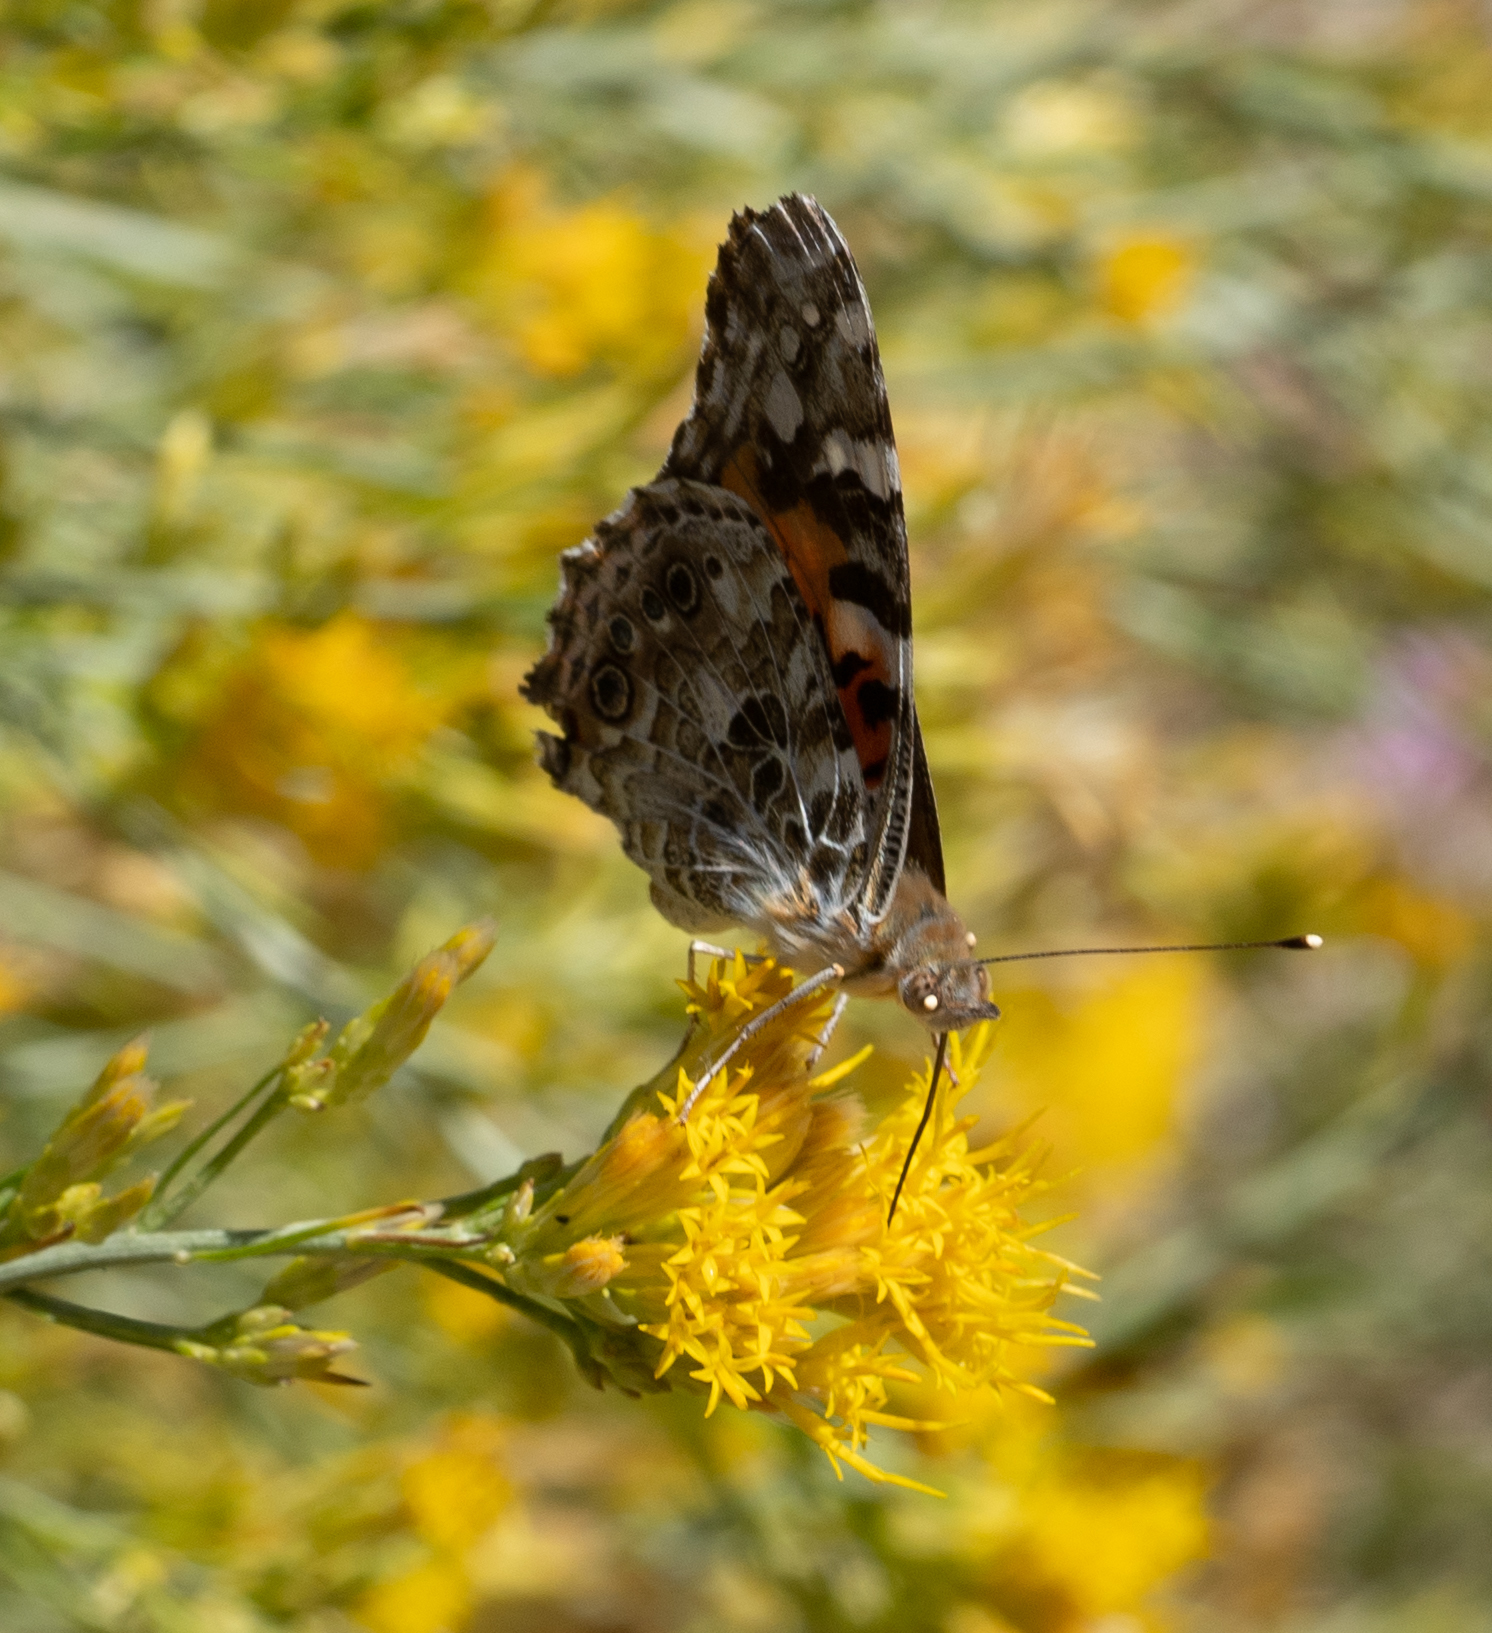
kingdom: Animalia
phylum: Arthropoda
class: Insecta
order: Lepidoptera
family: Nymphalidae
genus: Vanessa
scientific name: Vanessa cardui
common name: Painted lady
